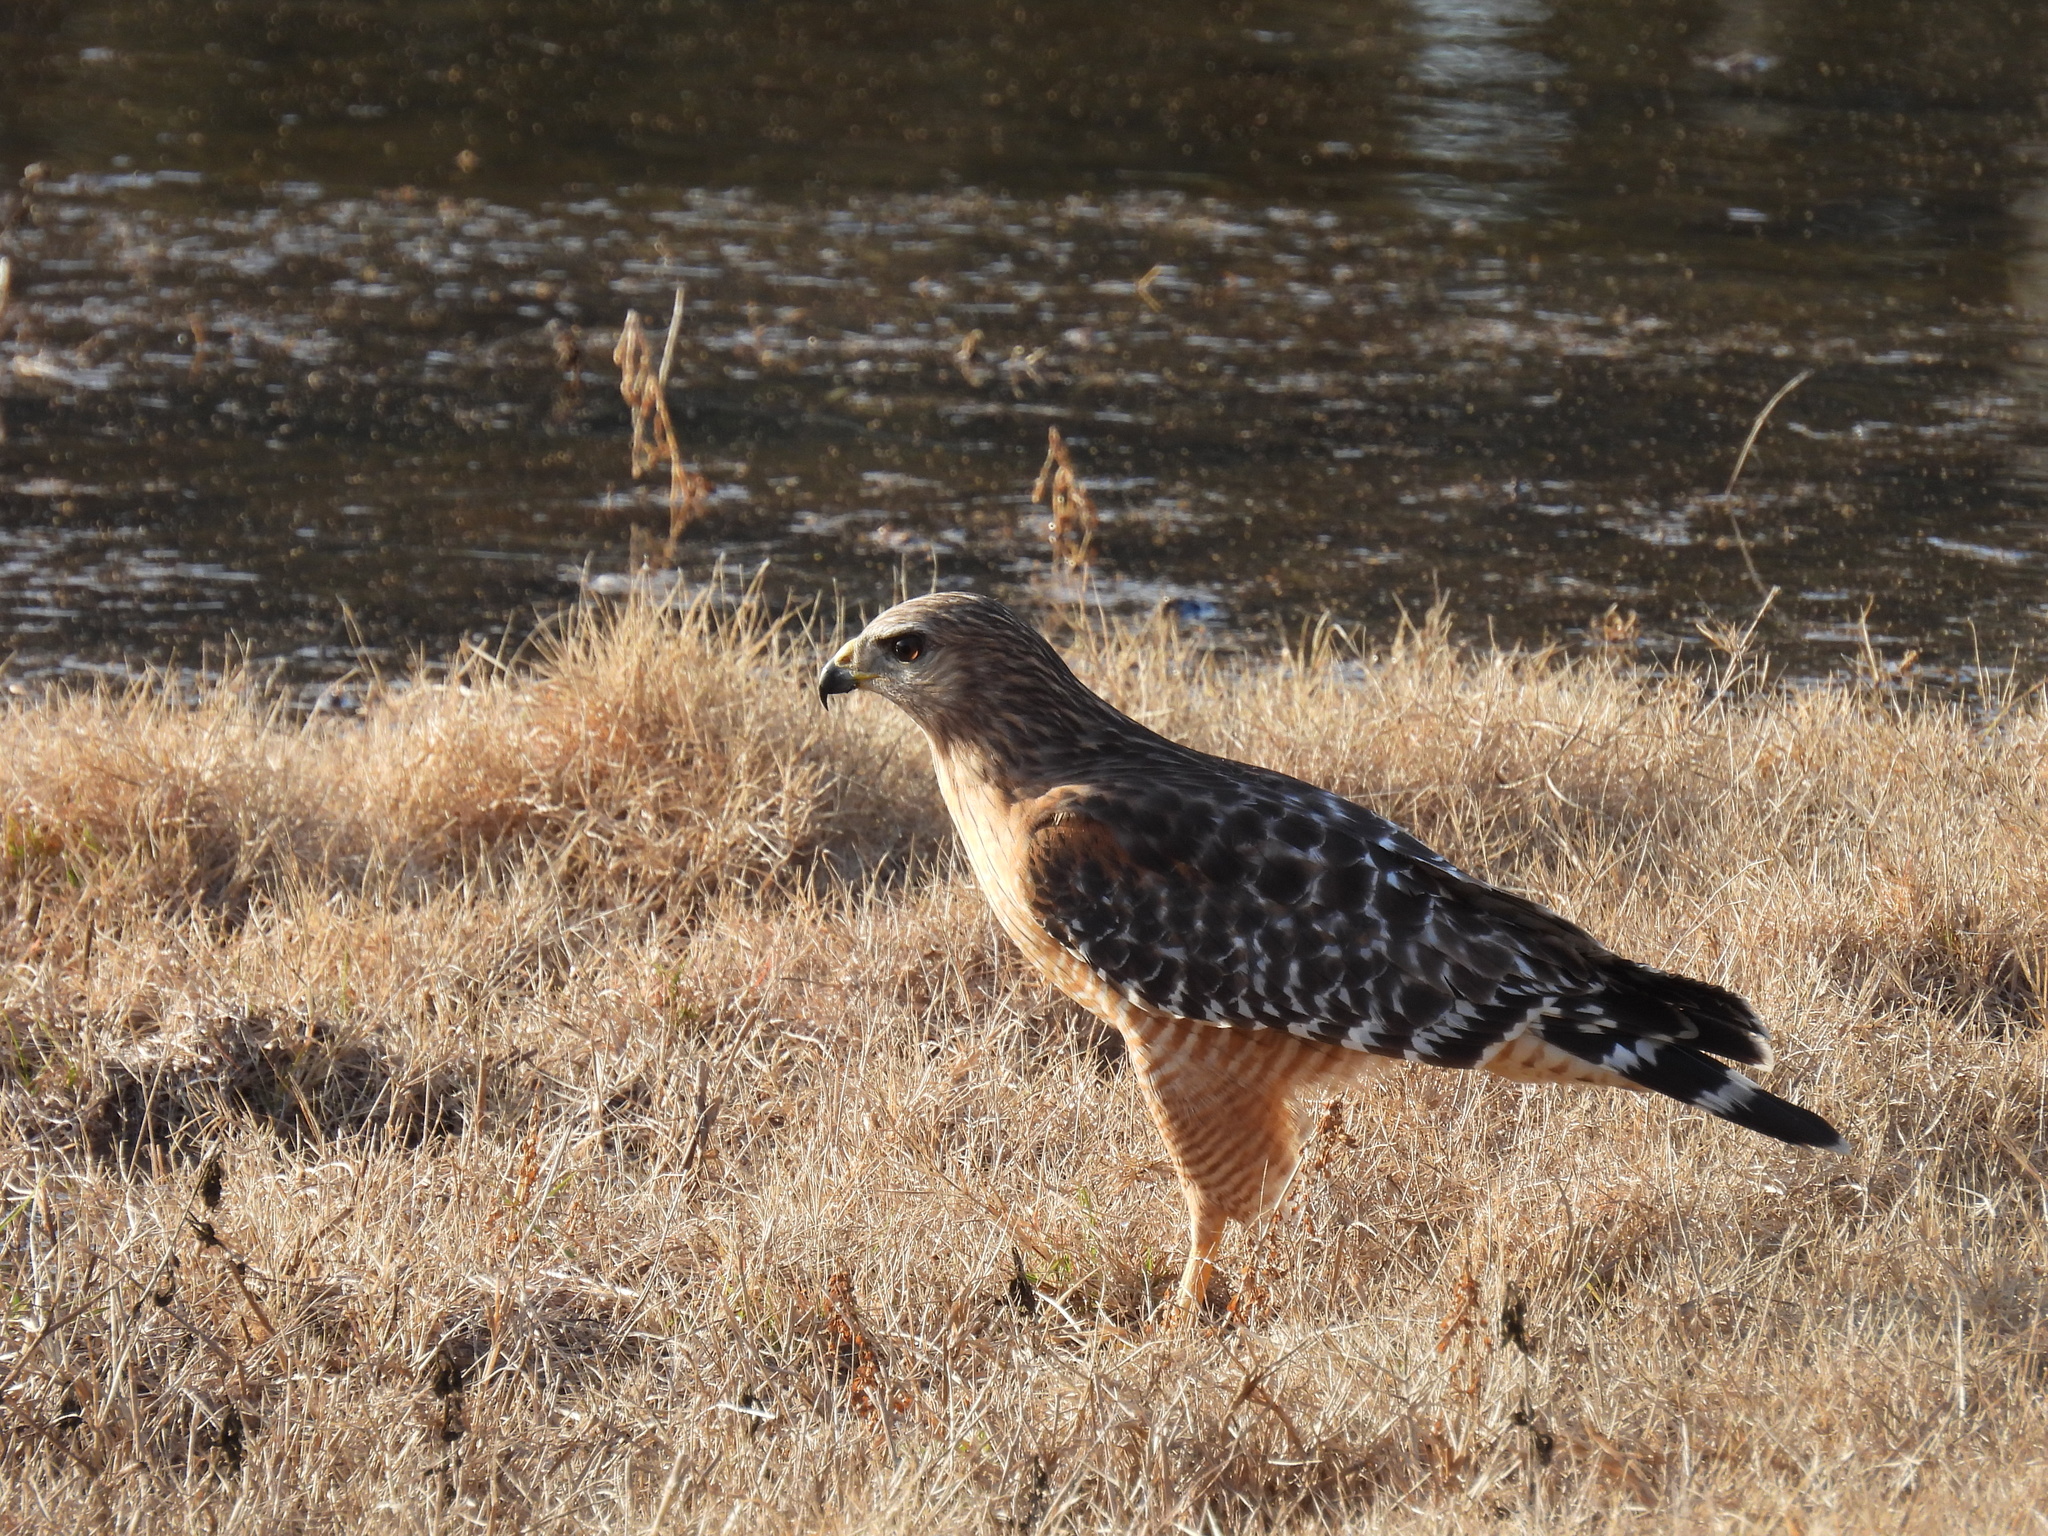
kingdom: Animalia
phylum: Chordata
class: Aves
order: Accipitriformes
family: Accipitridae
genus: Buteo
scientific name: Buteo lineatus
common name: Red-shouldered hawk
